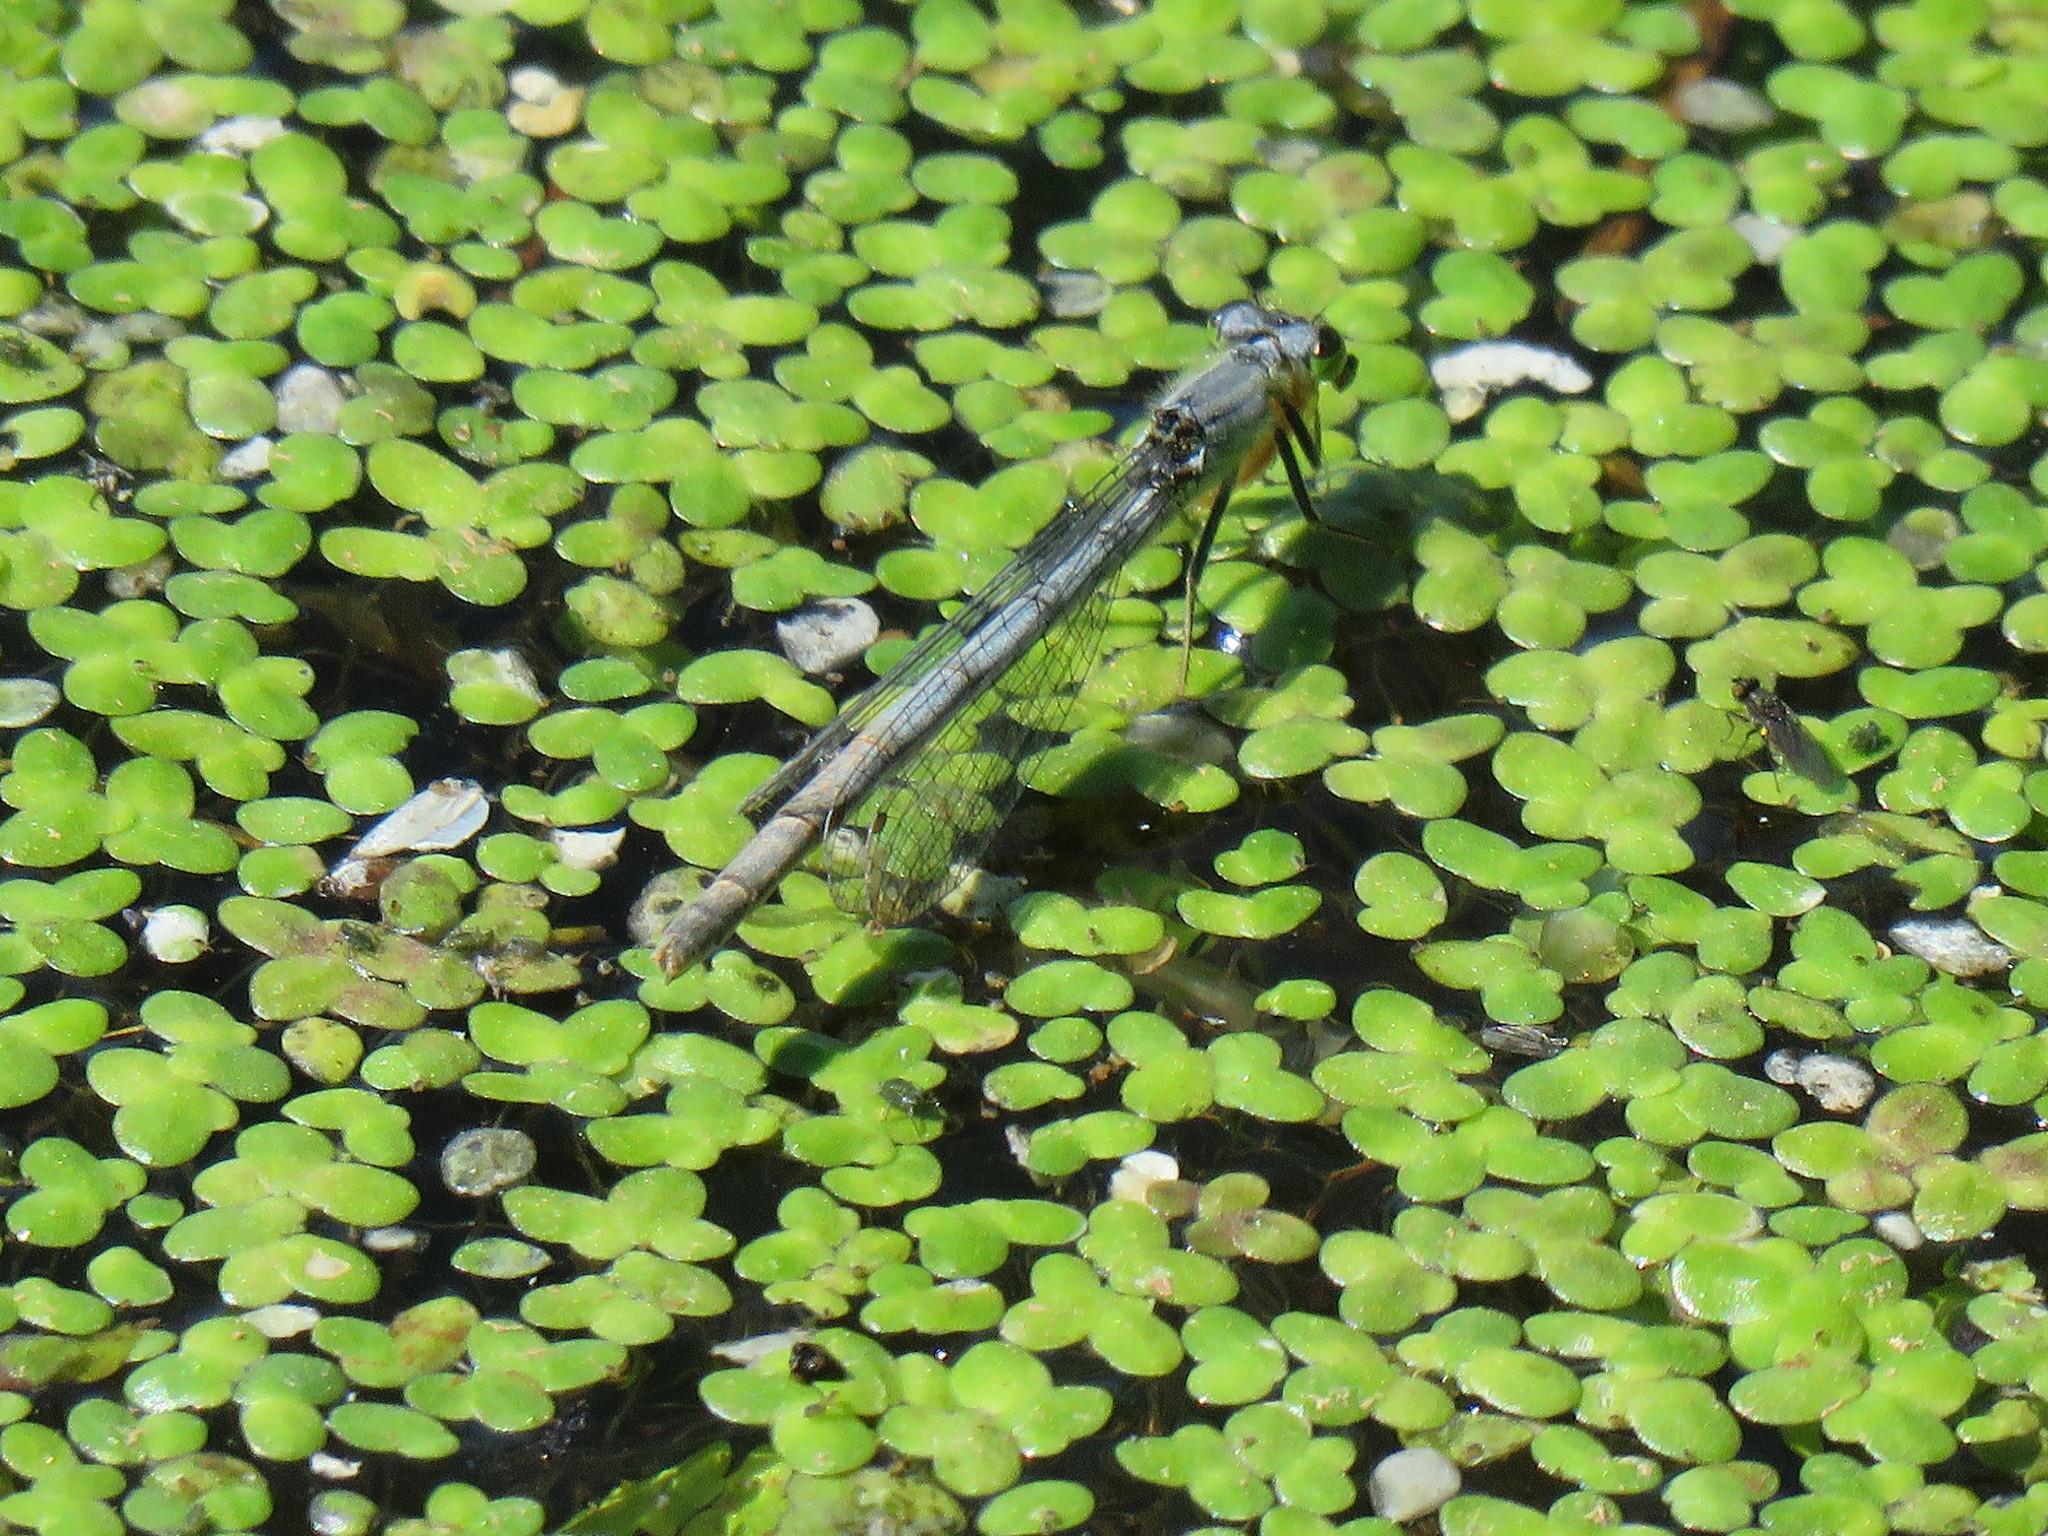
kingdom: Animalia
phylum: Arthropoda
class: Insecta
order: Odonata
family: Coenagrionidae
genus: Ischnura
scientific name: Ischnura verticalis
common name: Eastern forktail
